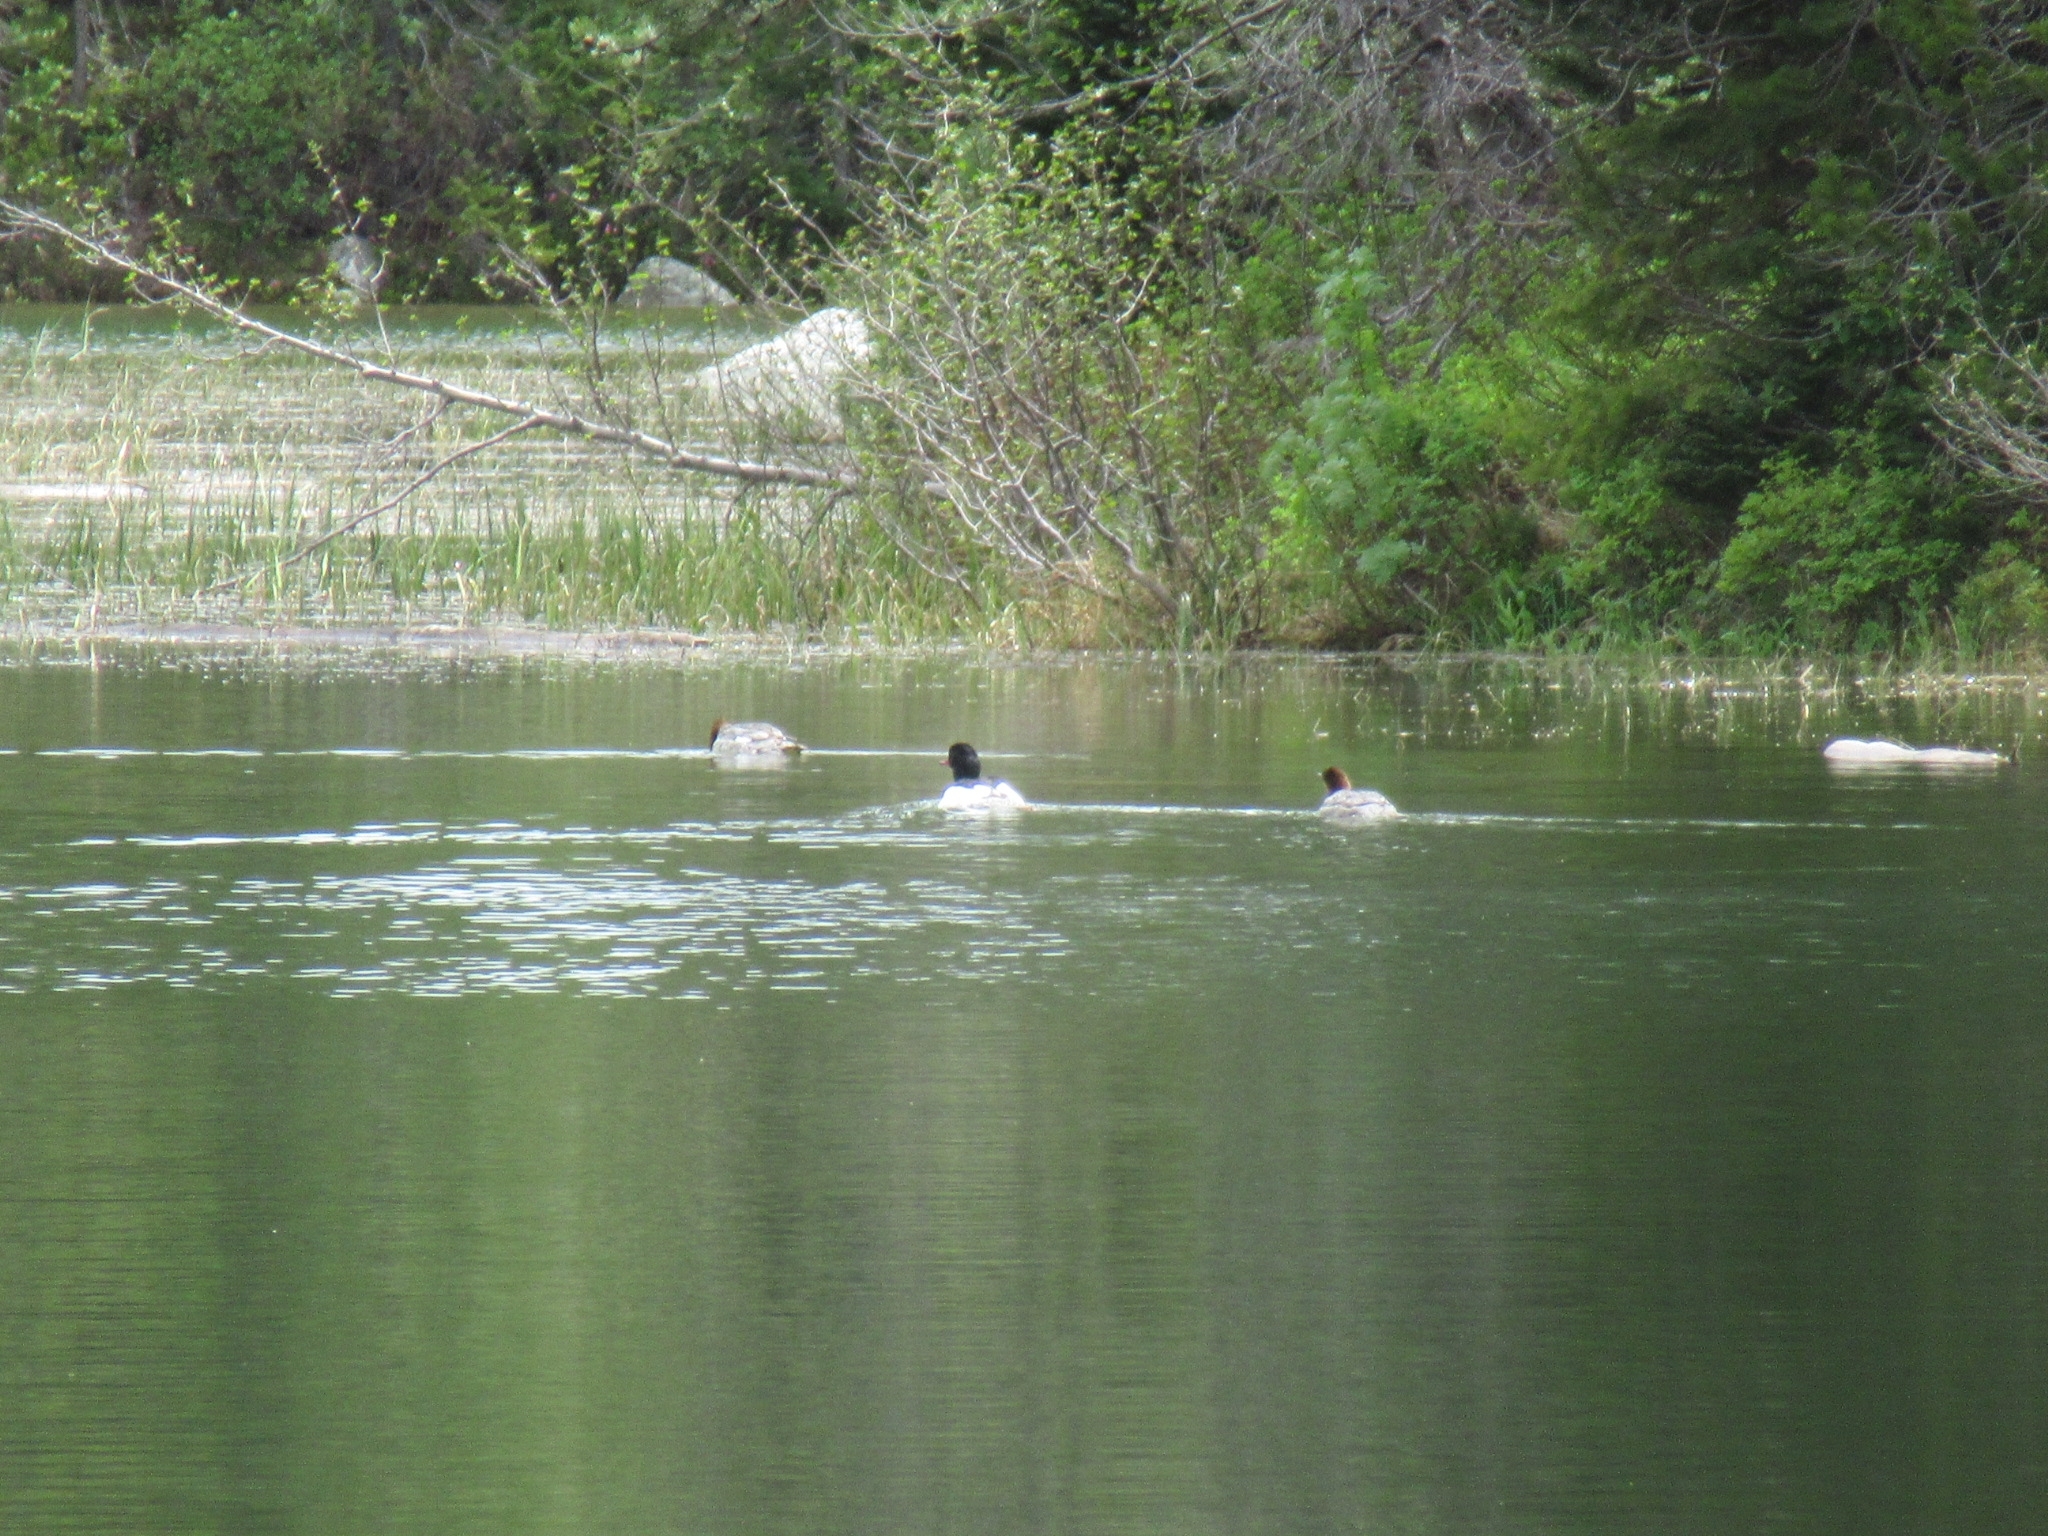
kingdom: Animalia
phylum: Chordata
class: Aves
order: Anseriformes
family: Anatidae
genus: Mergus
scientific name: Mergus merganser
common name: Common merganser
